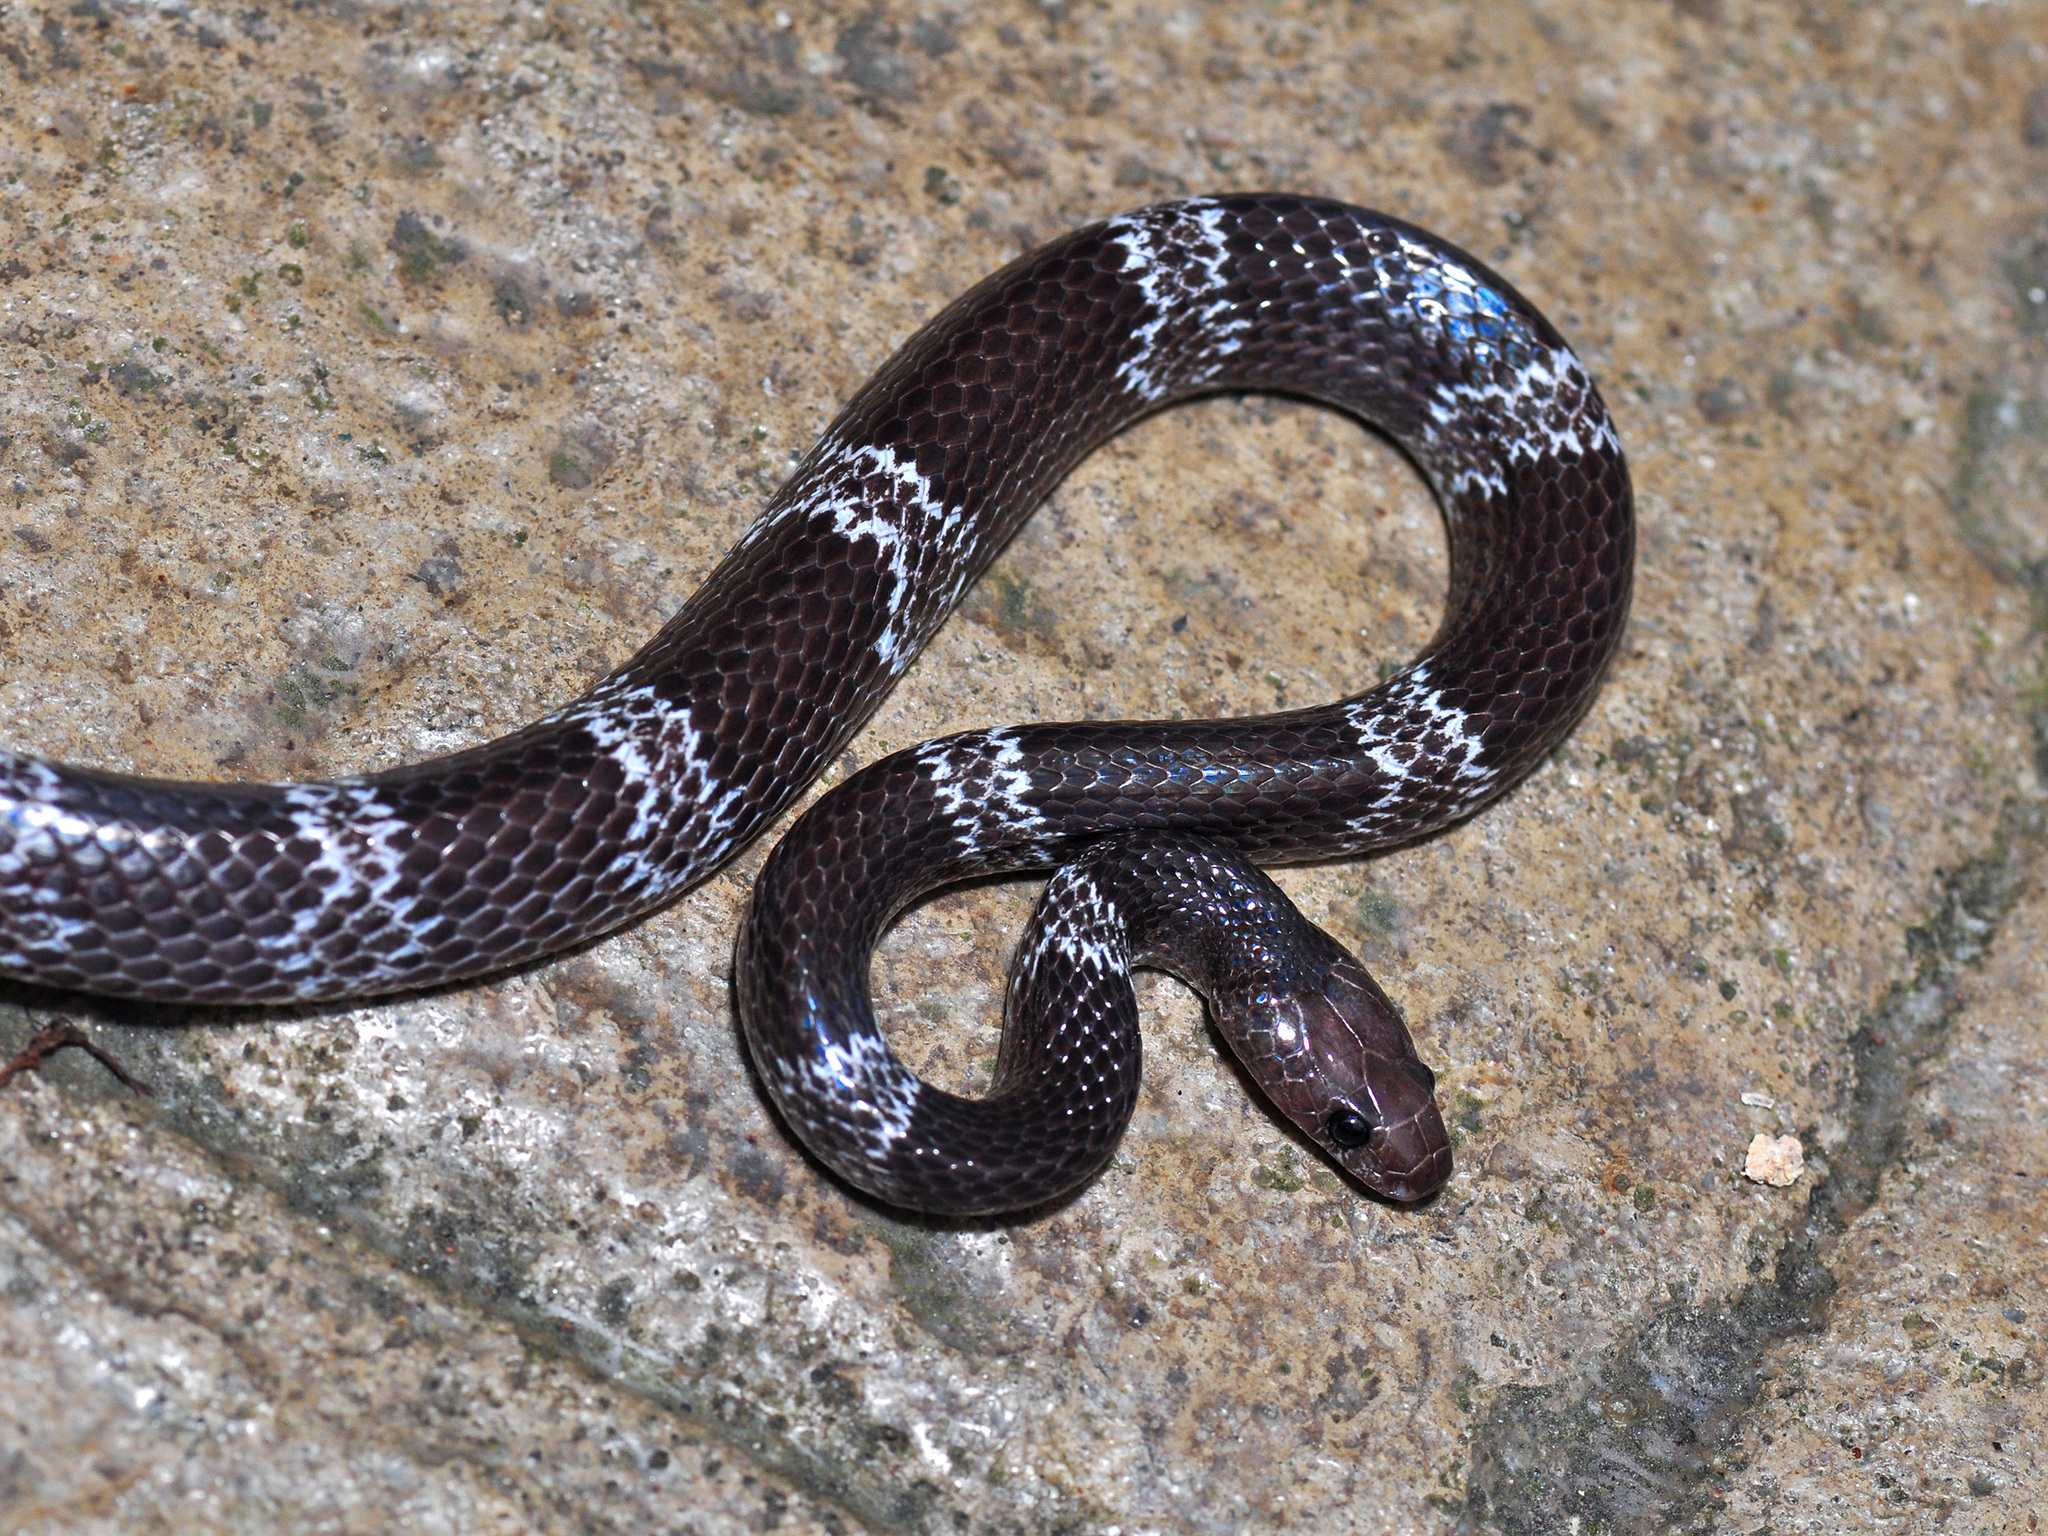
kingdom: Animalia
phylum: Chordata
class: Squamata
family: Colubridae
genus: Lycodon
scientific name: Lycodon butleri
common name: Butler's wolf snake
